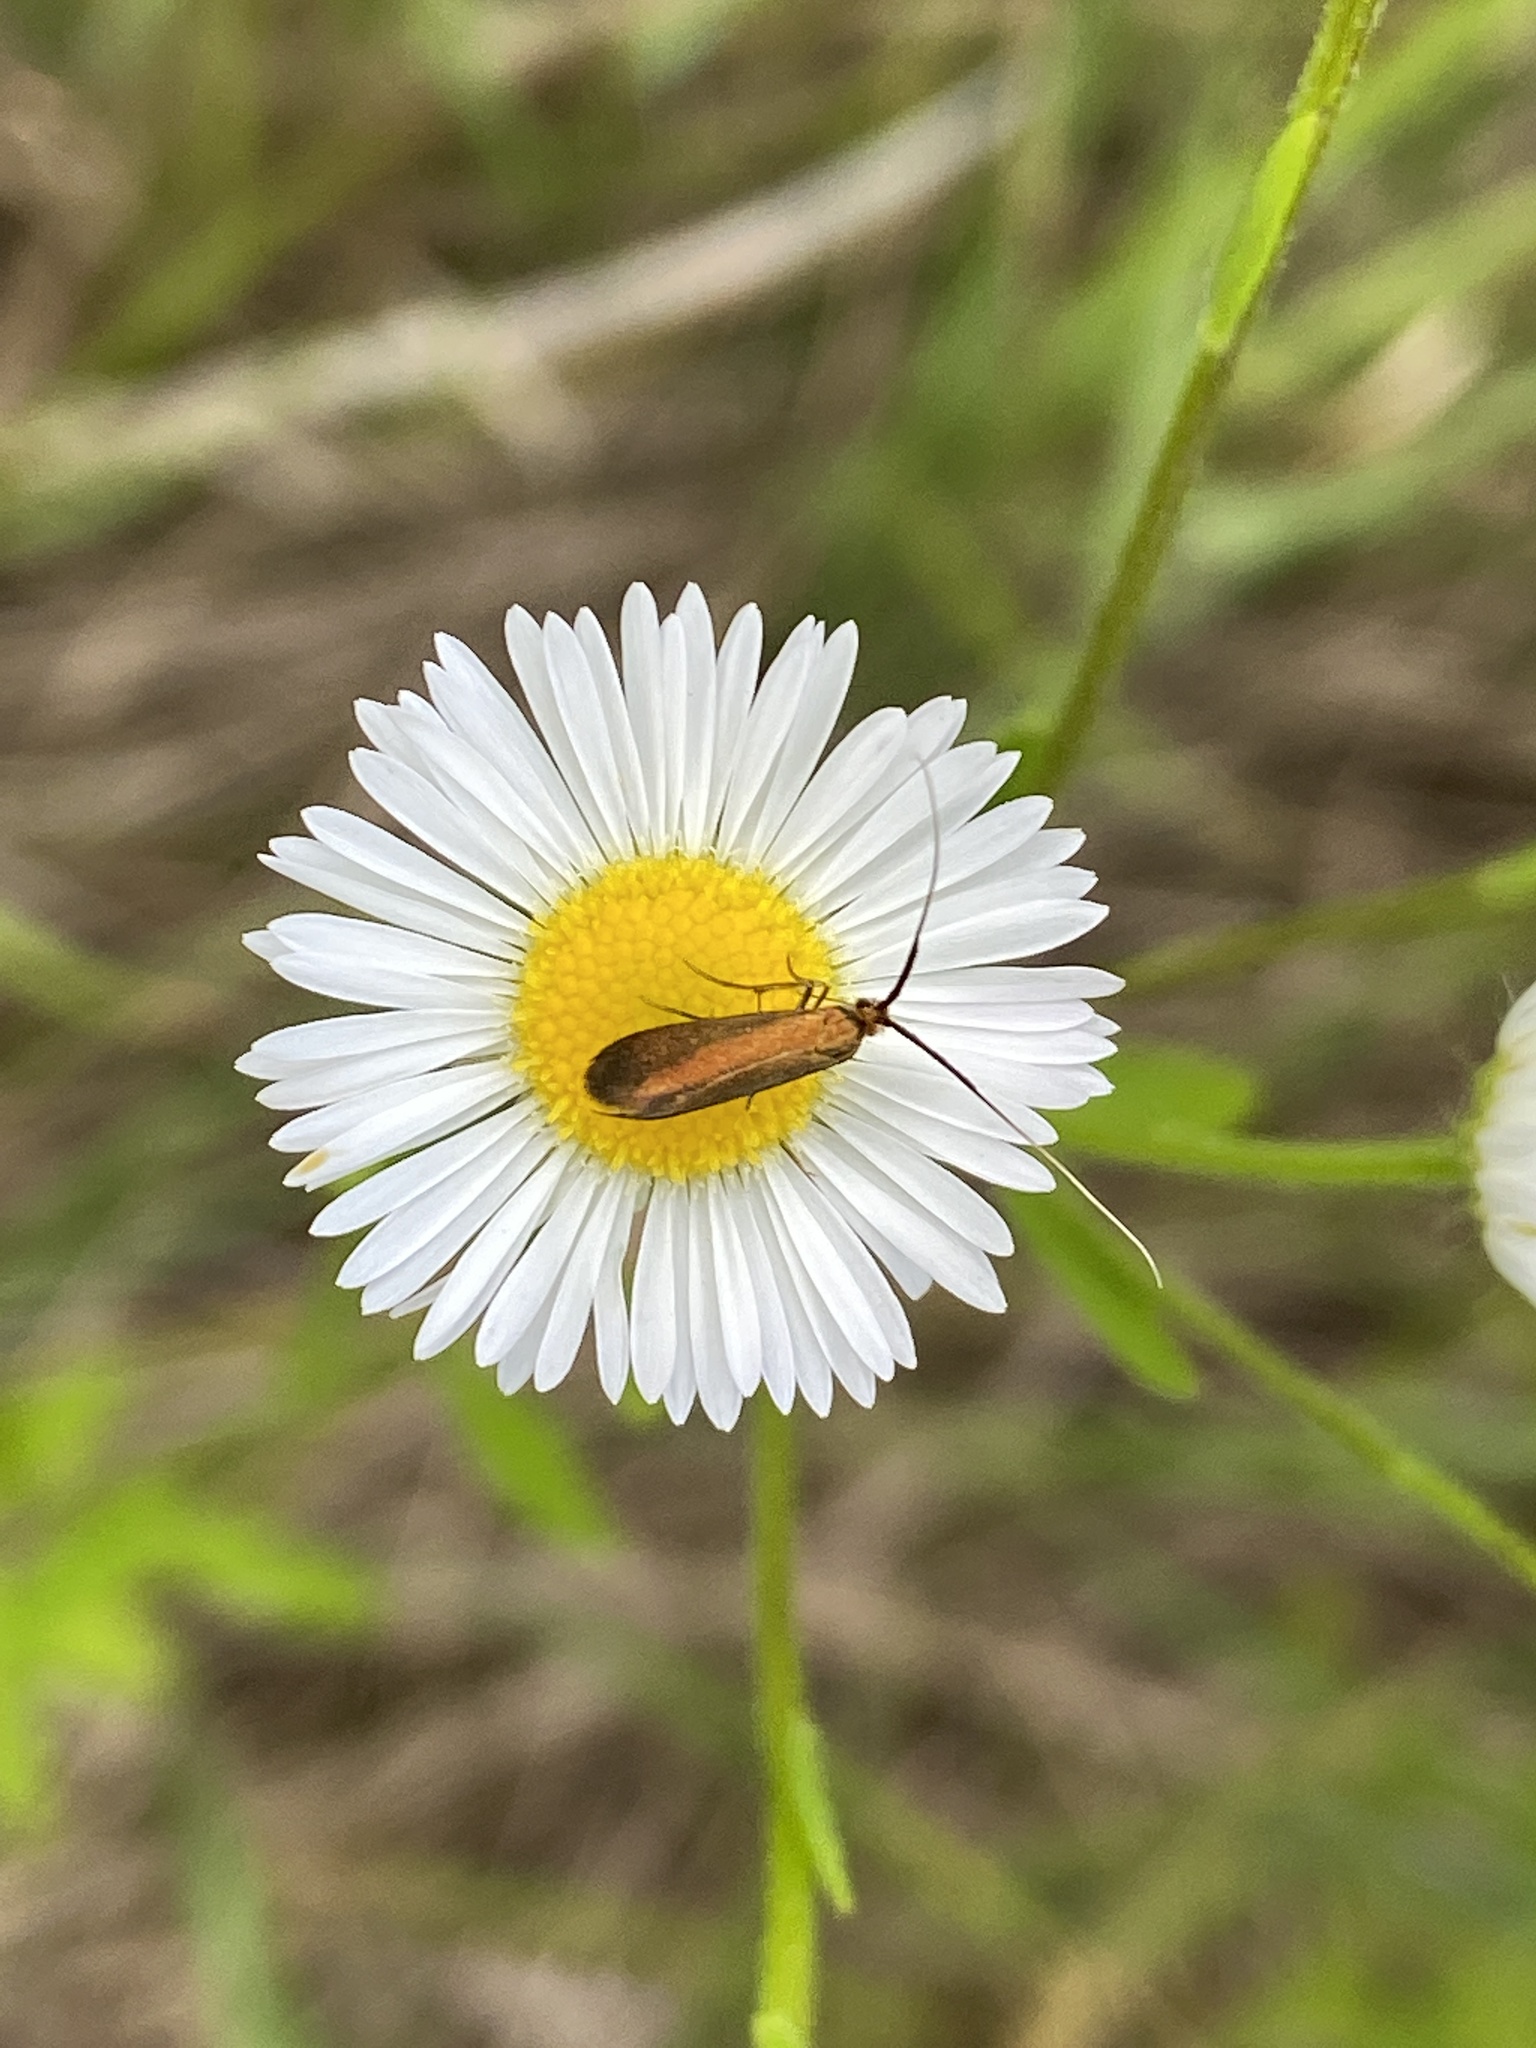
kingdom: Animalia
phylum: Arthropoda
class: Insecta
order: Lepidoptera
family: Adelidae
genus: Adela
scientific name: Adela violella
